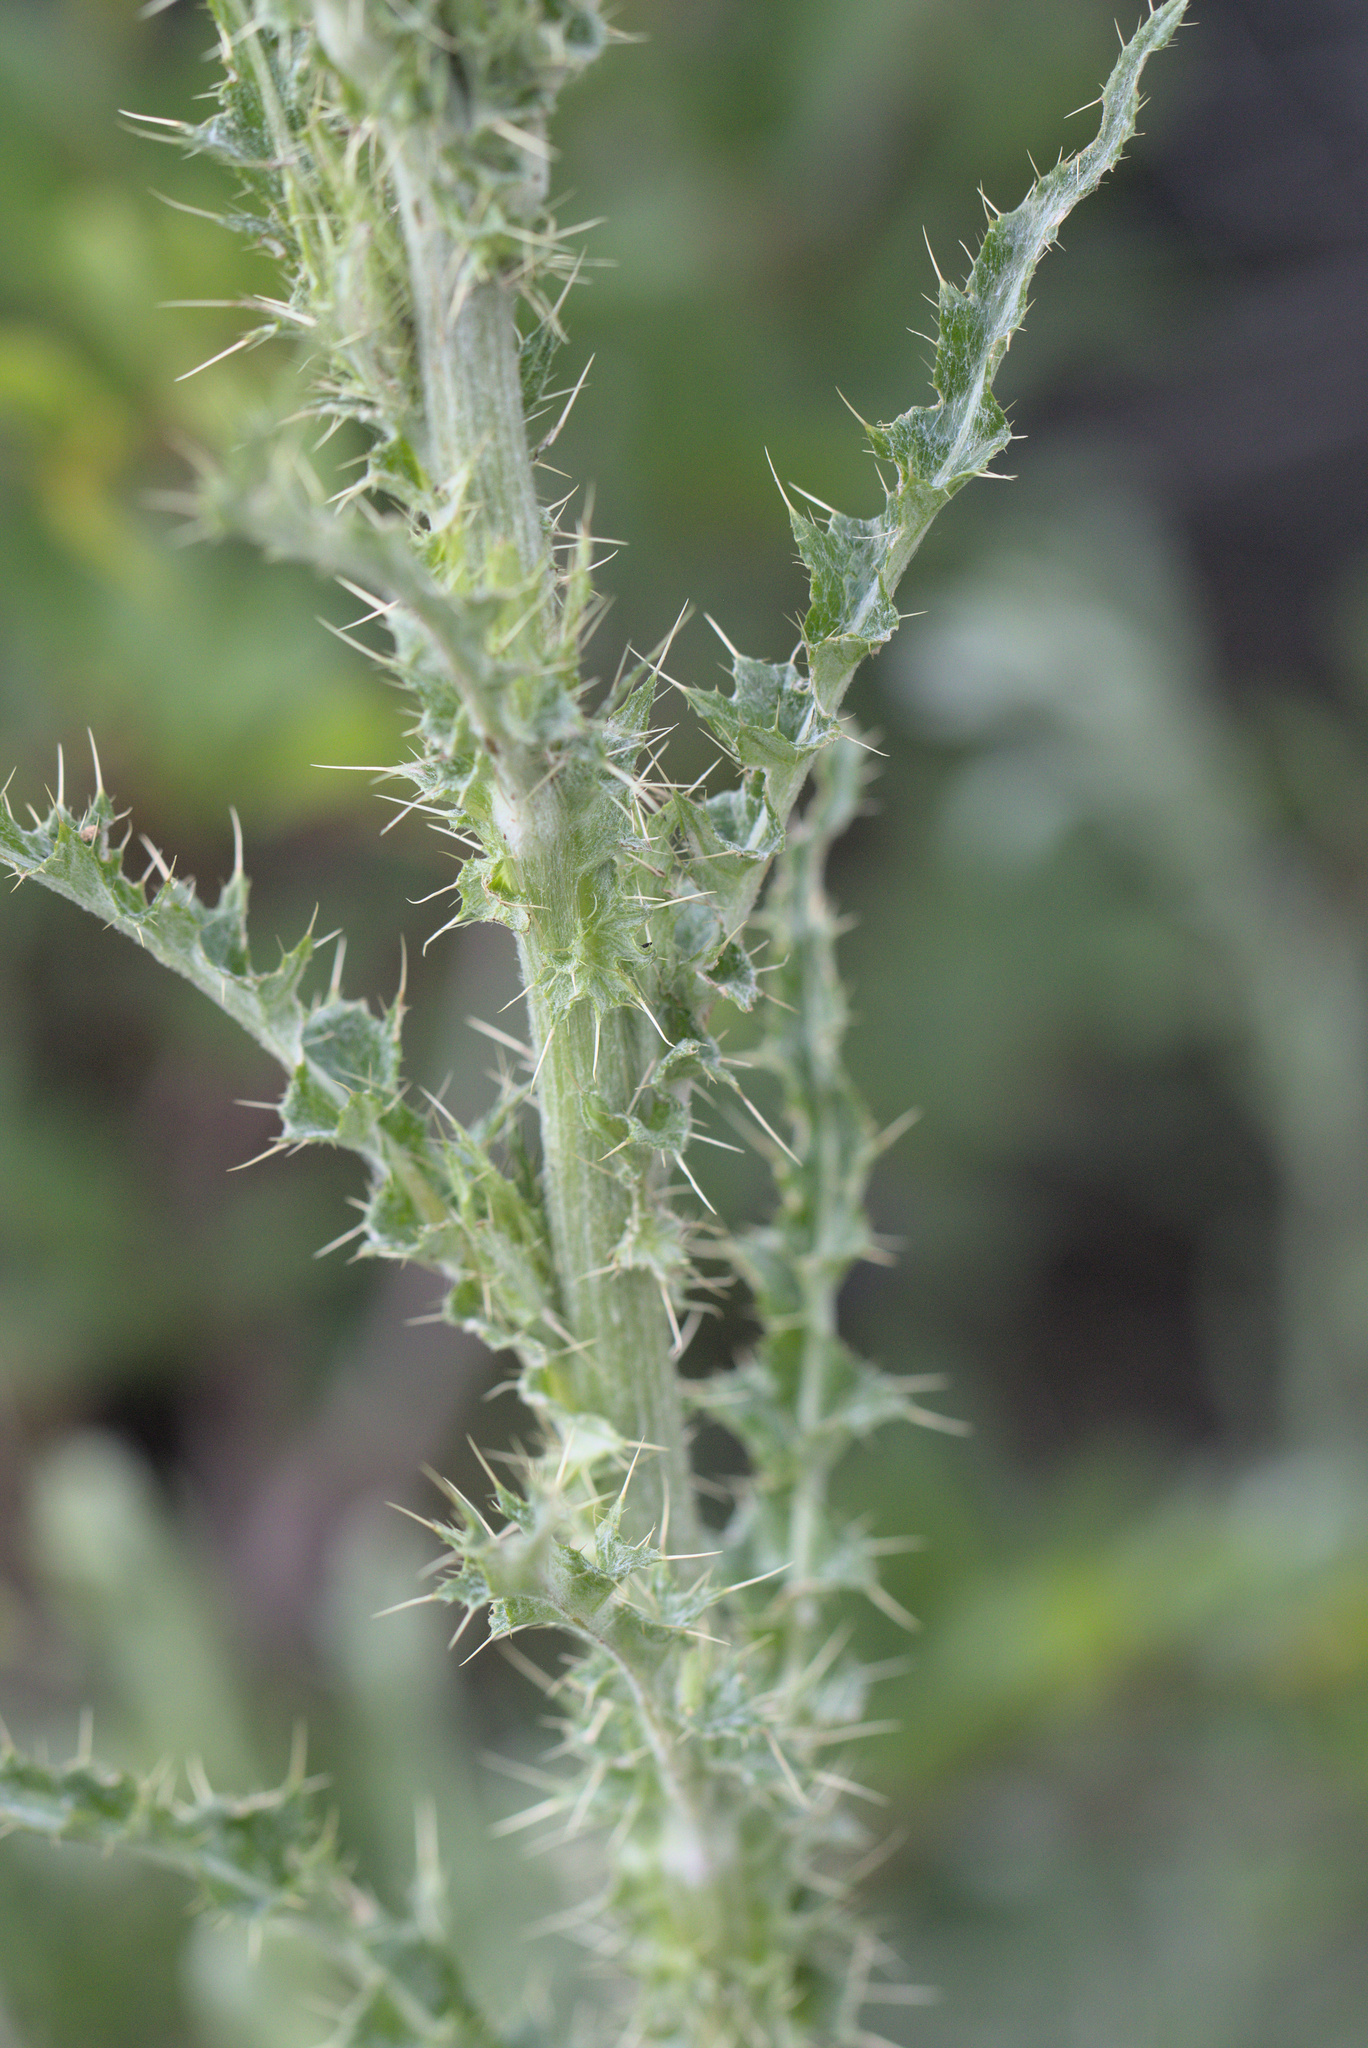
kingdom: Plantae
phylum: Tracheophyta
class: Magnoliopsida
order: Asterales
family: Asteraceae
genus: Cirsium
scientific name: Cirsium cymosum
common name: Peregrine thistle
